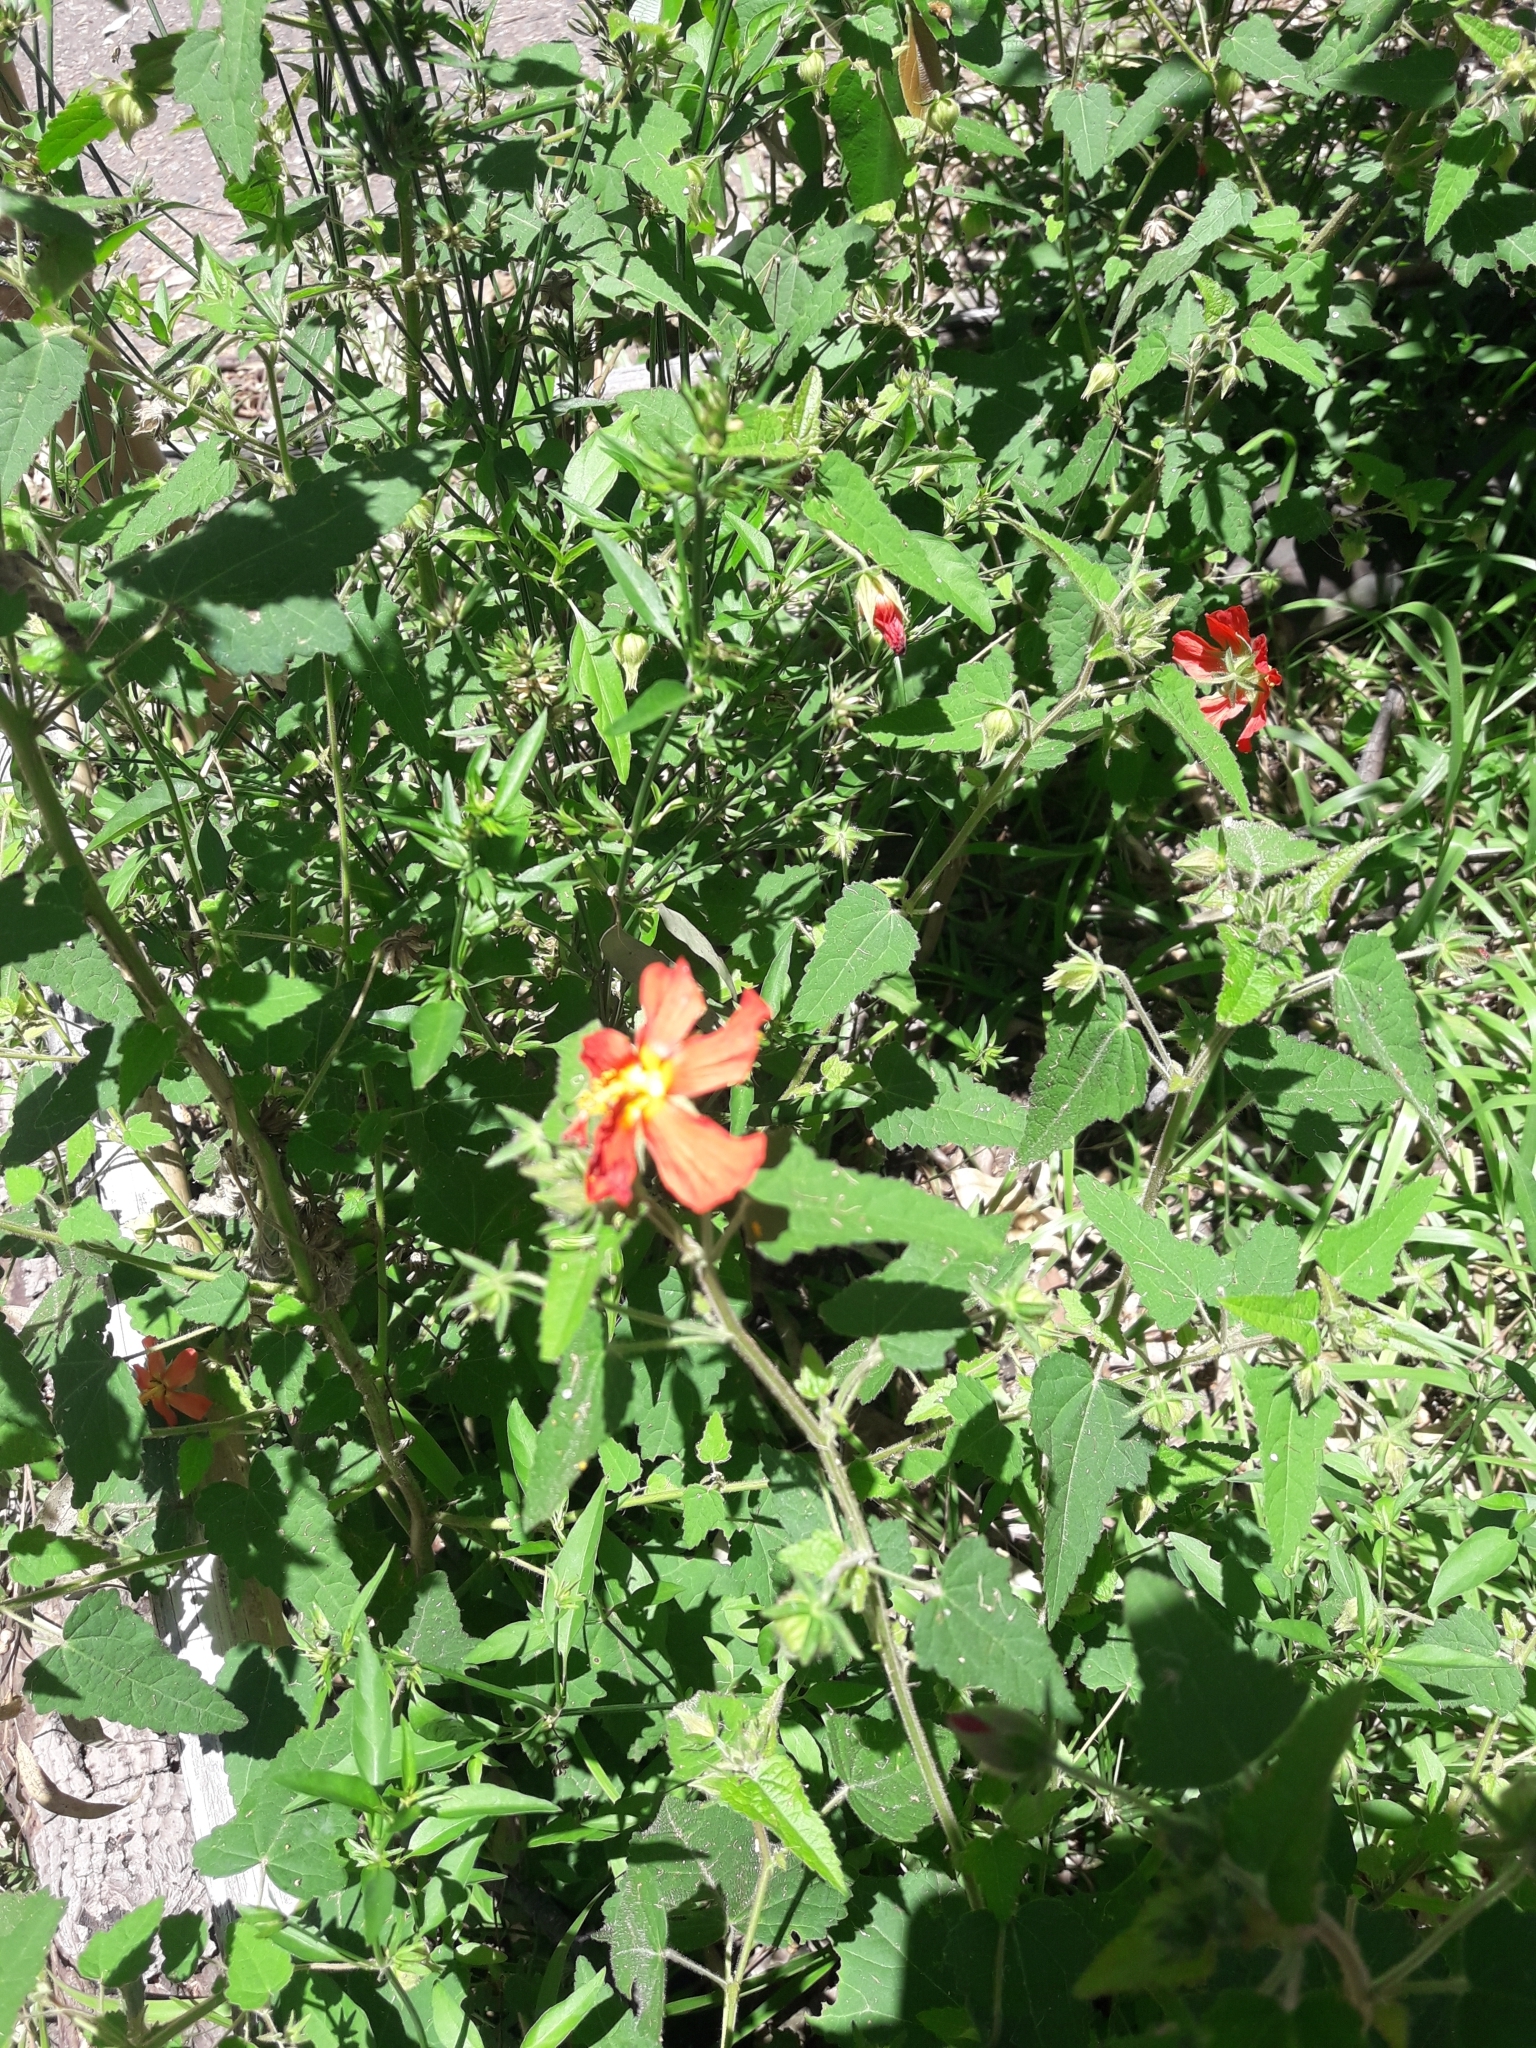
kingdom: Plantae
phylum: Tracheophyta
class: Magnoliopsida
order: Malvales
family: Malvaceae
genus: Pavonia
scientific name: Pavonia missionum
